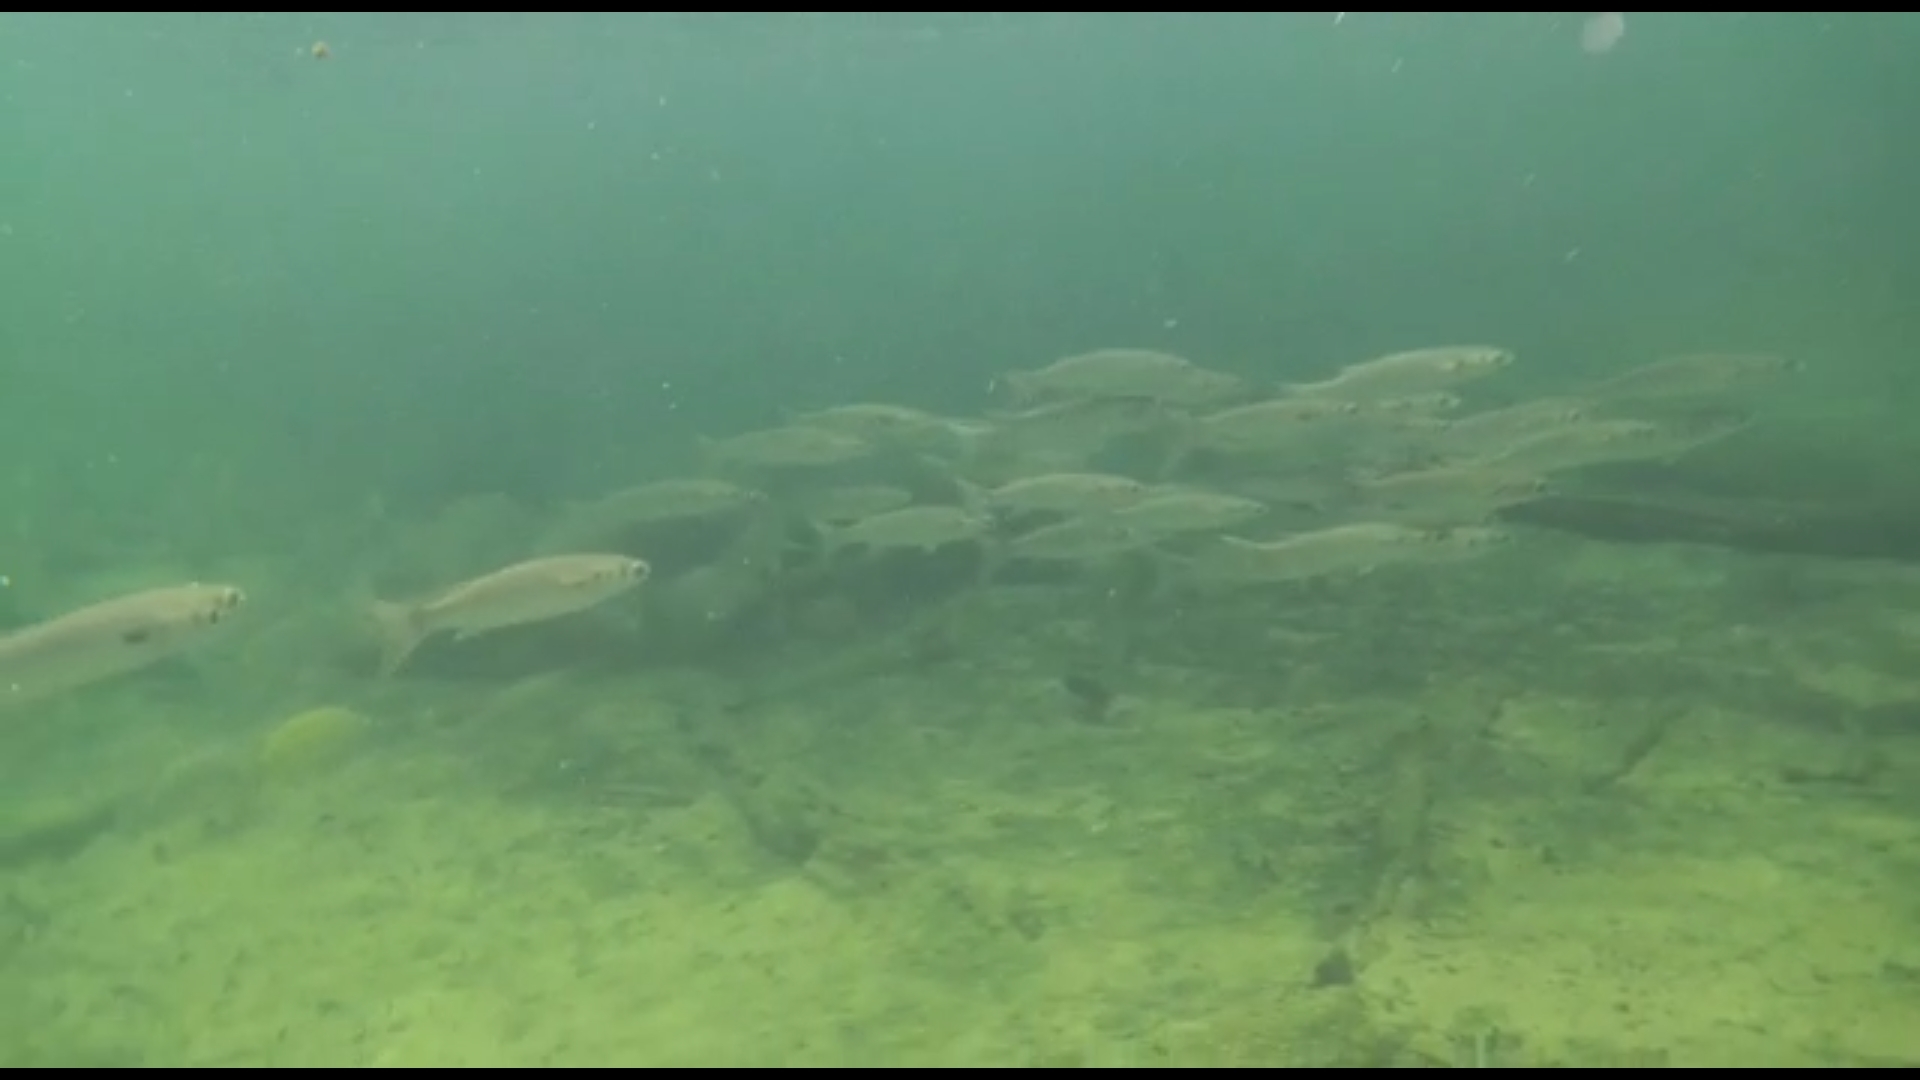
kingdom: Animalia
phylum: Chordata
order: Mugiliformes
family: Mugilidae
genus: Mugil
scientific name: Mugil cephalus
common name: Grey mullet
